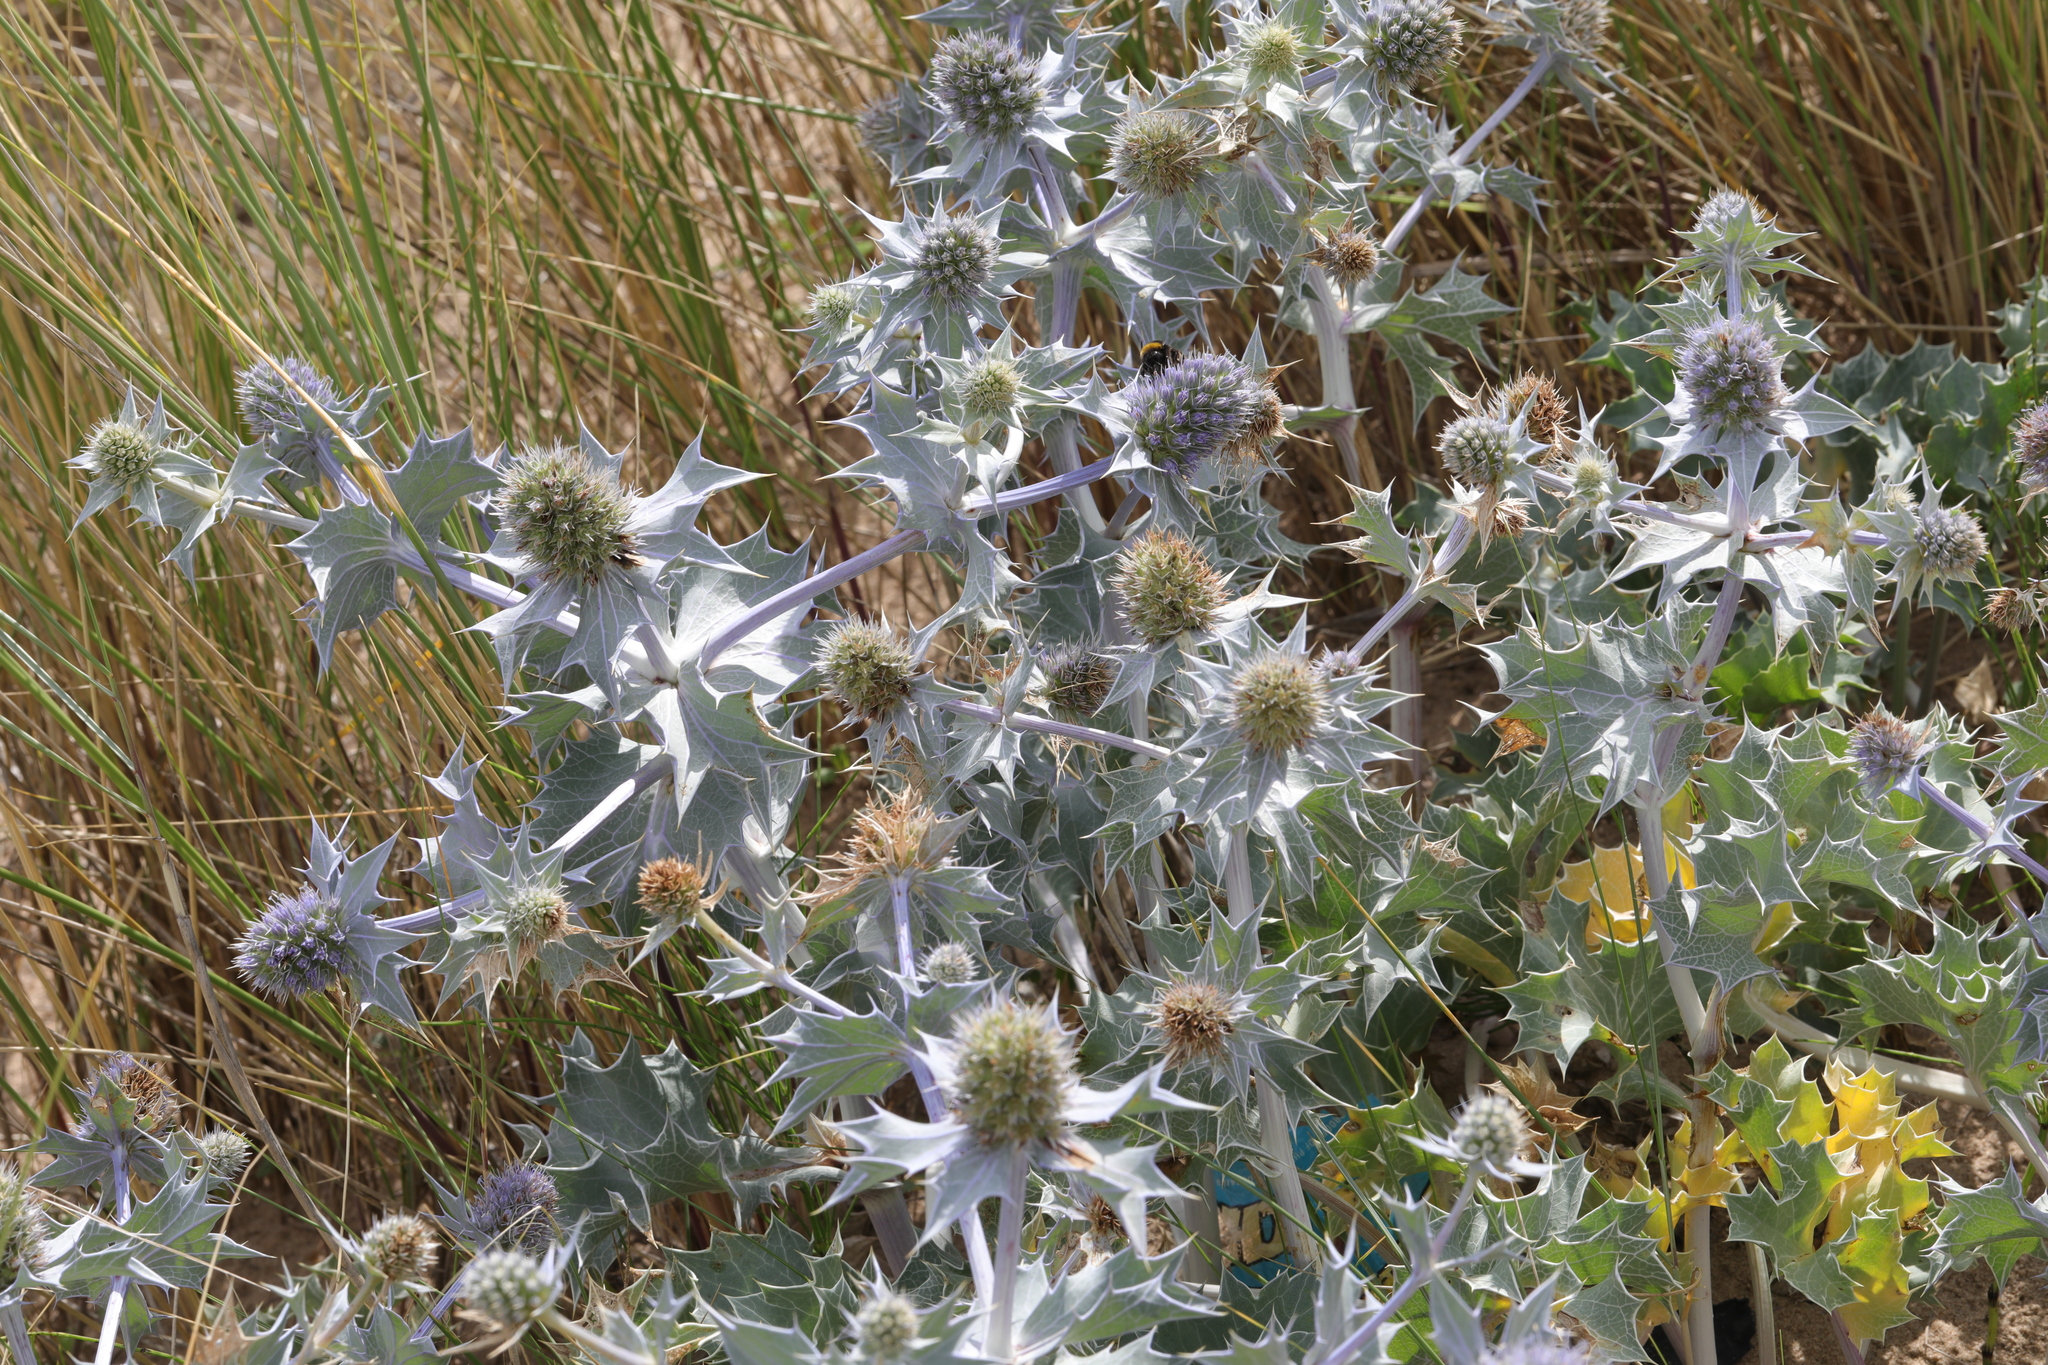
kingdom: Plantae
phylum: Tracheophyta
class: Magnoliopsida
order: Apiales
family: Apiaceae
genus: Eryngium
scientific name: Eryngium maritimum
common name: Sea-holly
